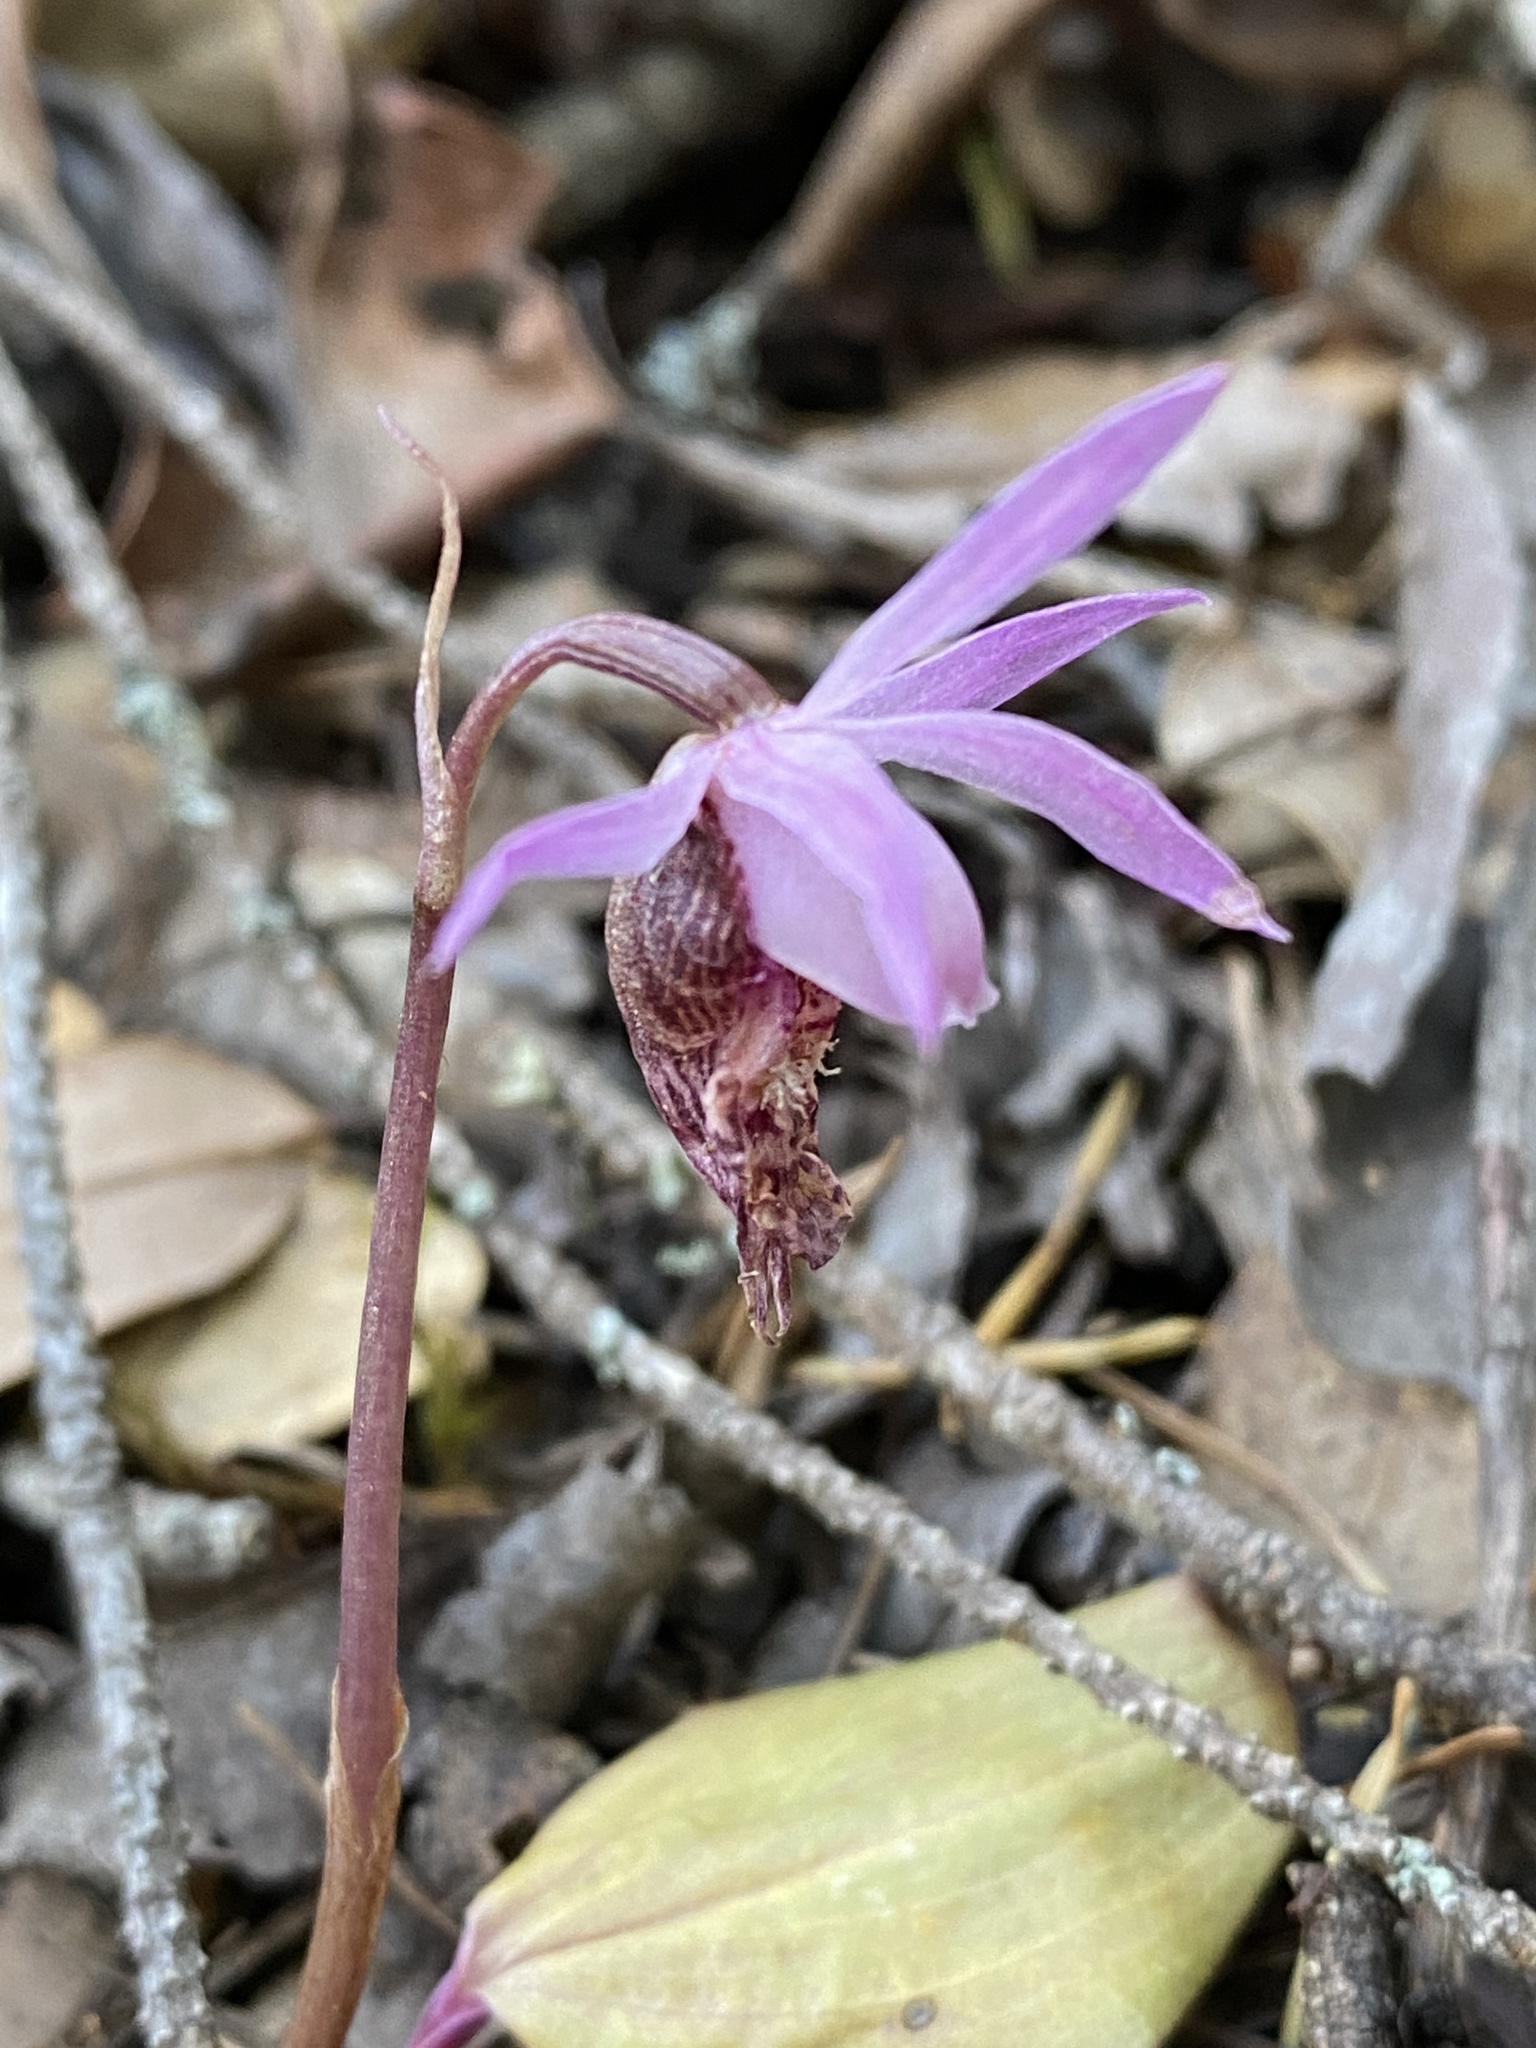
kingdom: Plantae
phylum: Tracheophyta
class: Liliopsida
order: Asparagales
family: Orchidaceae
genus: Calypso
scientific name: Calypso bulbosa
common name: Calypso
